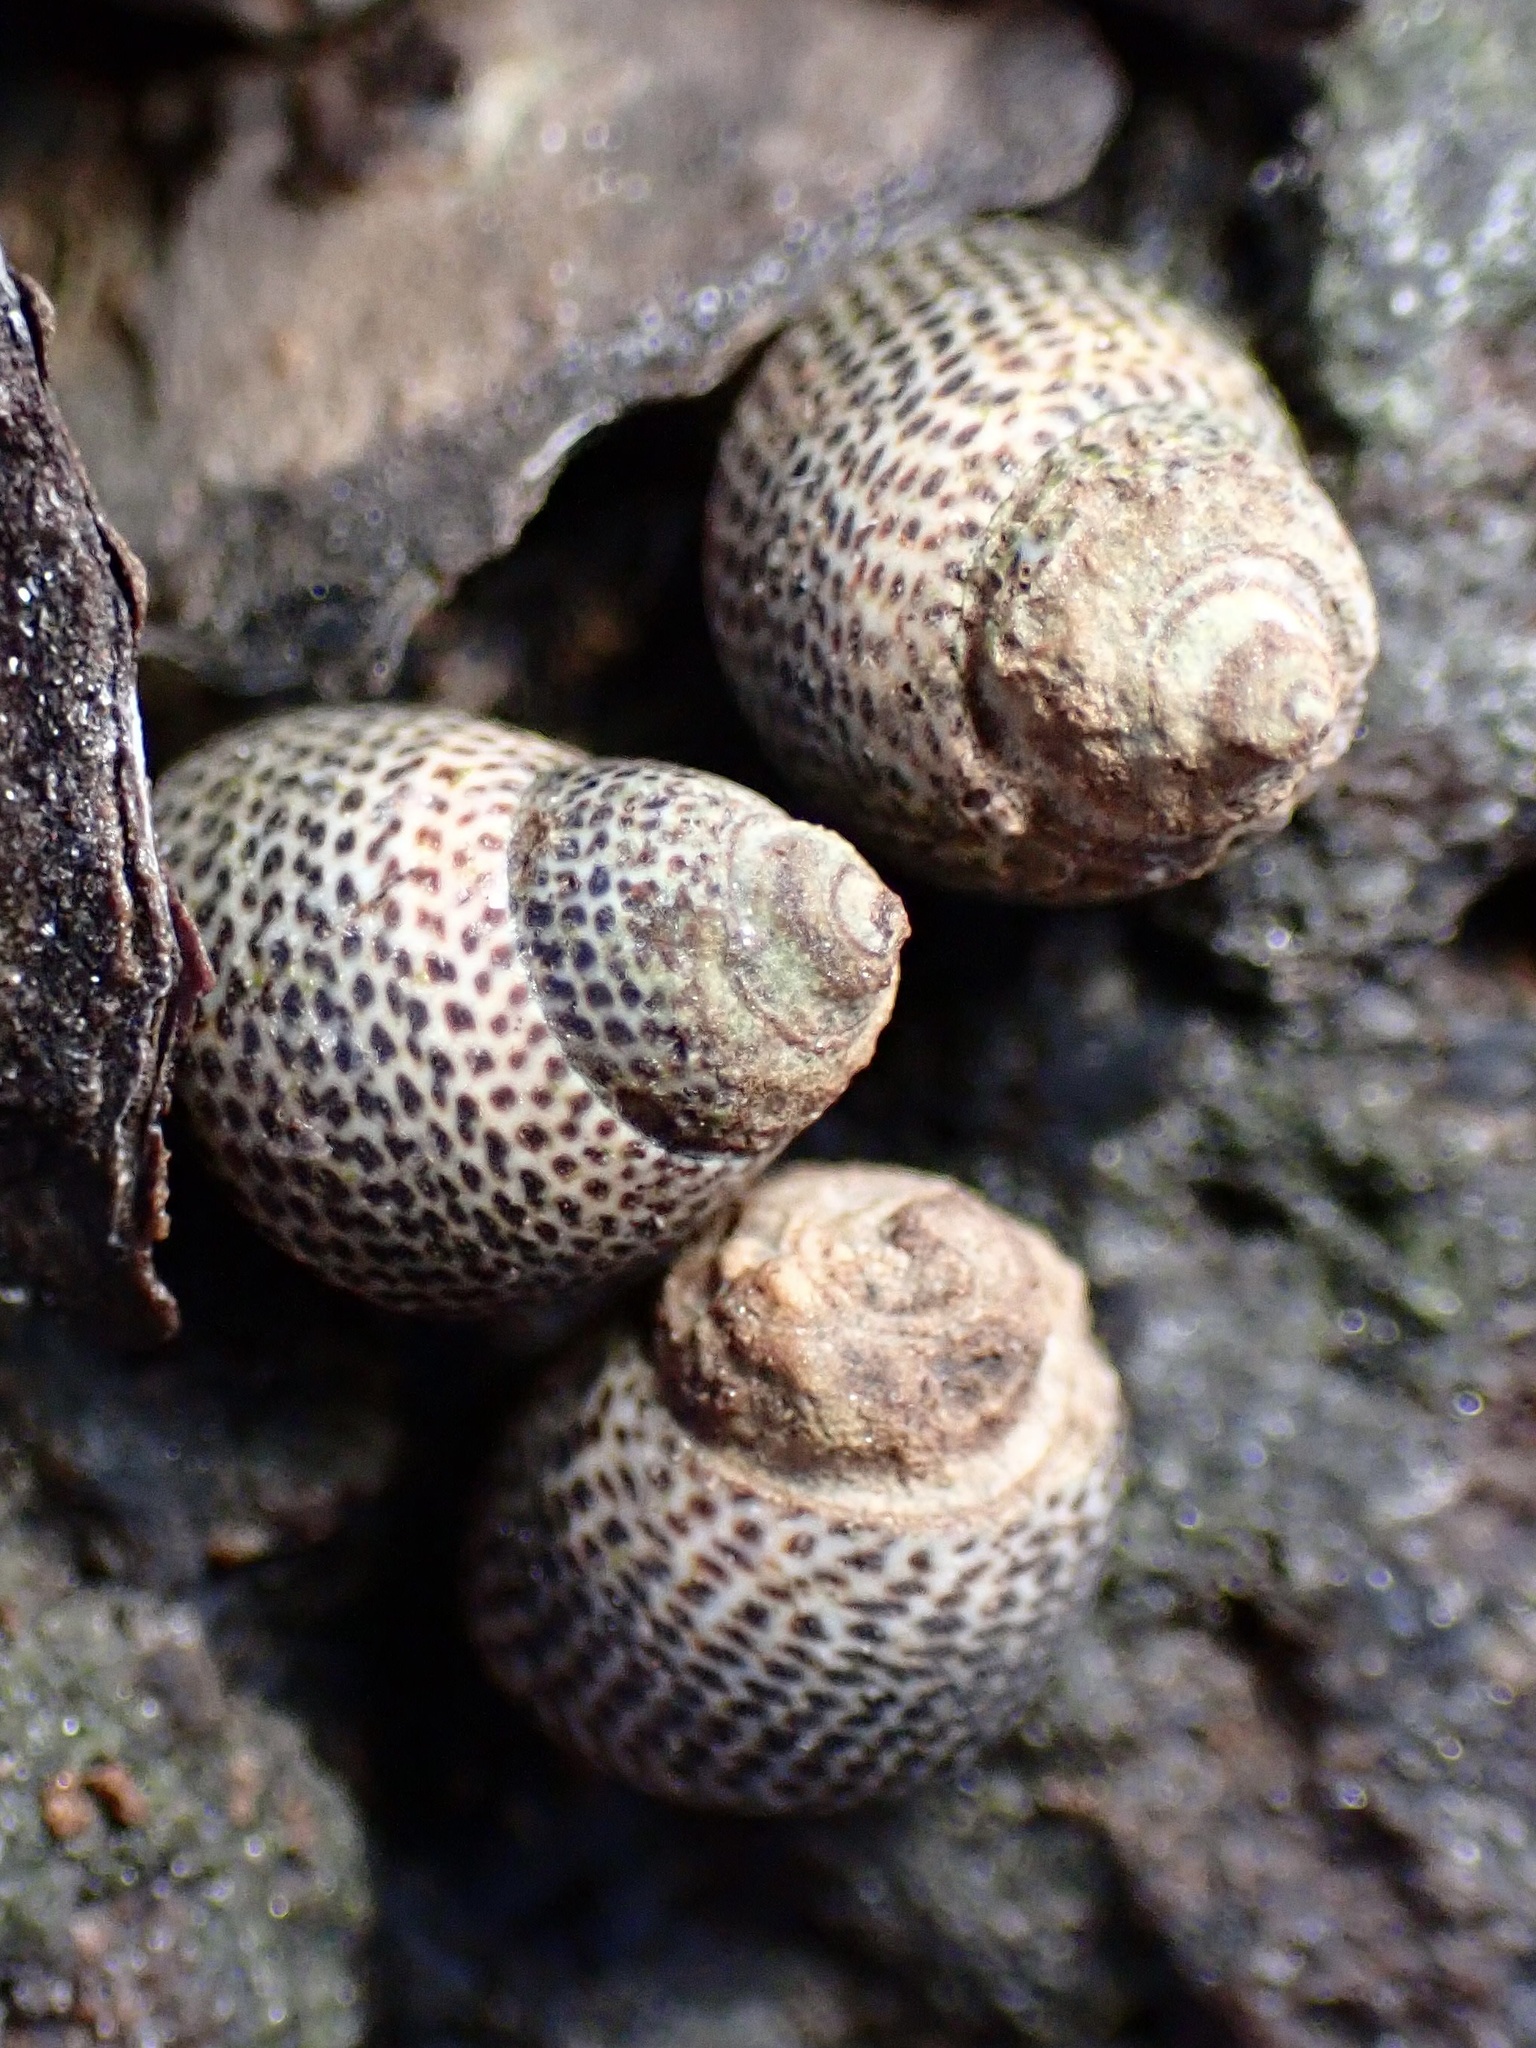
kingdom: Animalia
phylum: Mollusca
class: Gastropoda
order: Littorinimorpha
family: Littorinidae
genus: Littoraria
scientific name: Littoraria pintado
